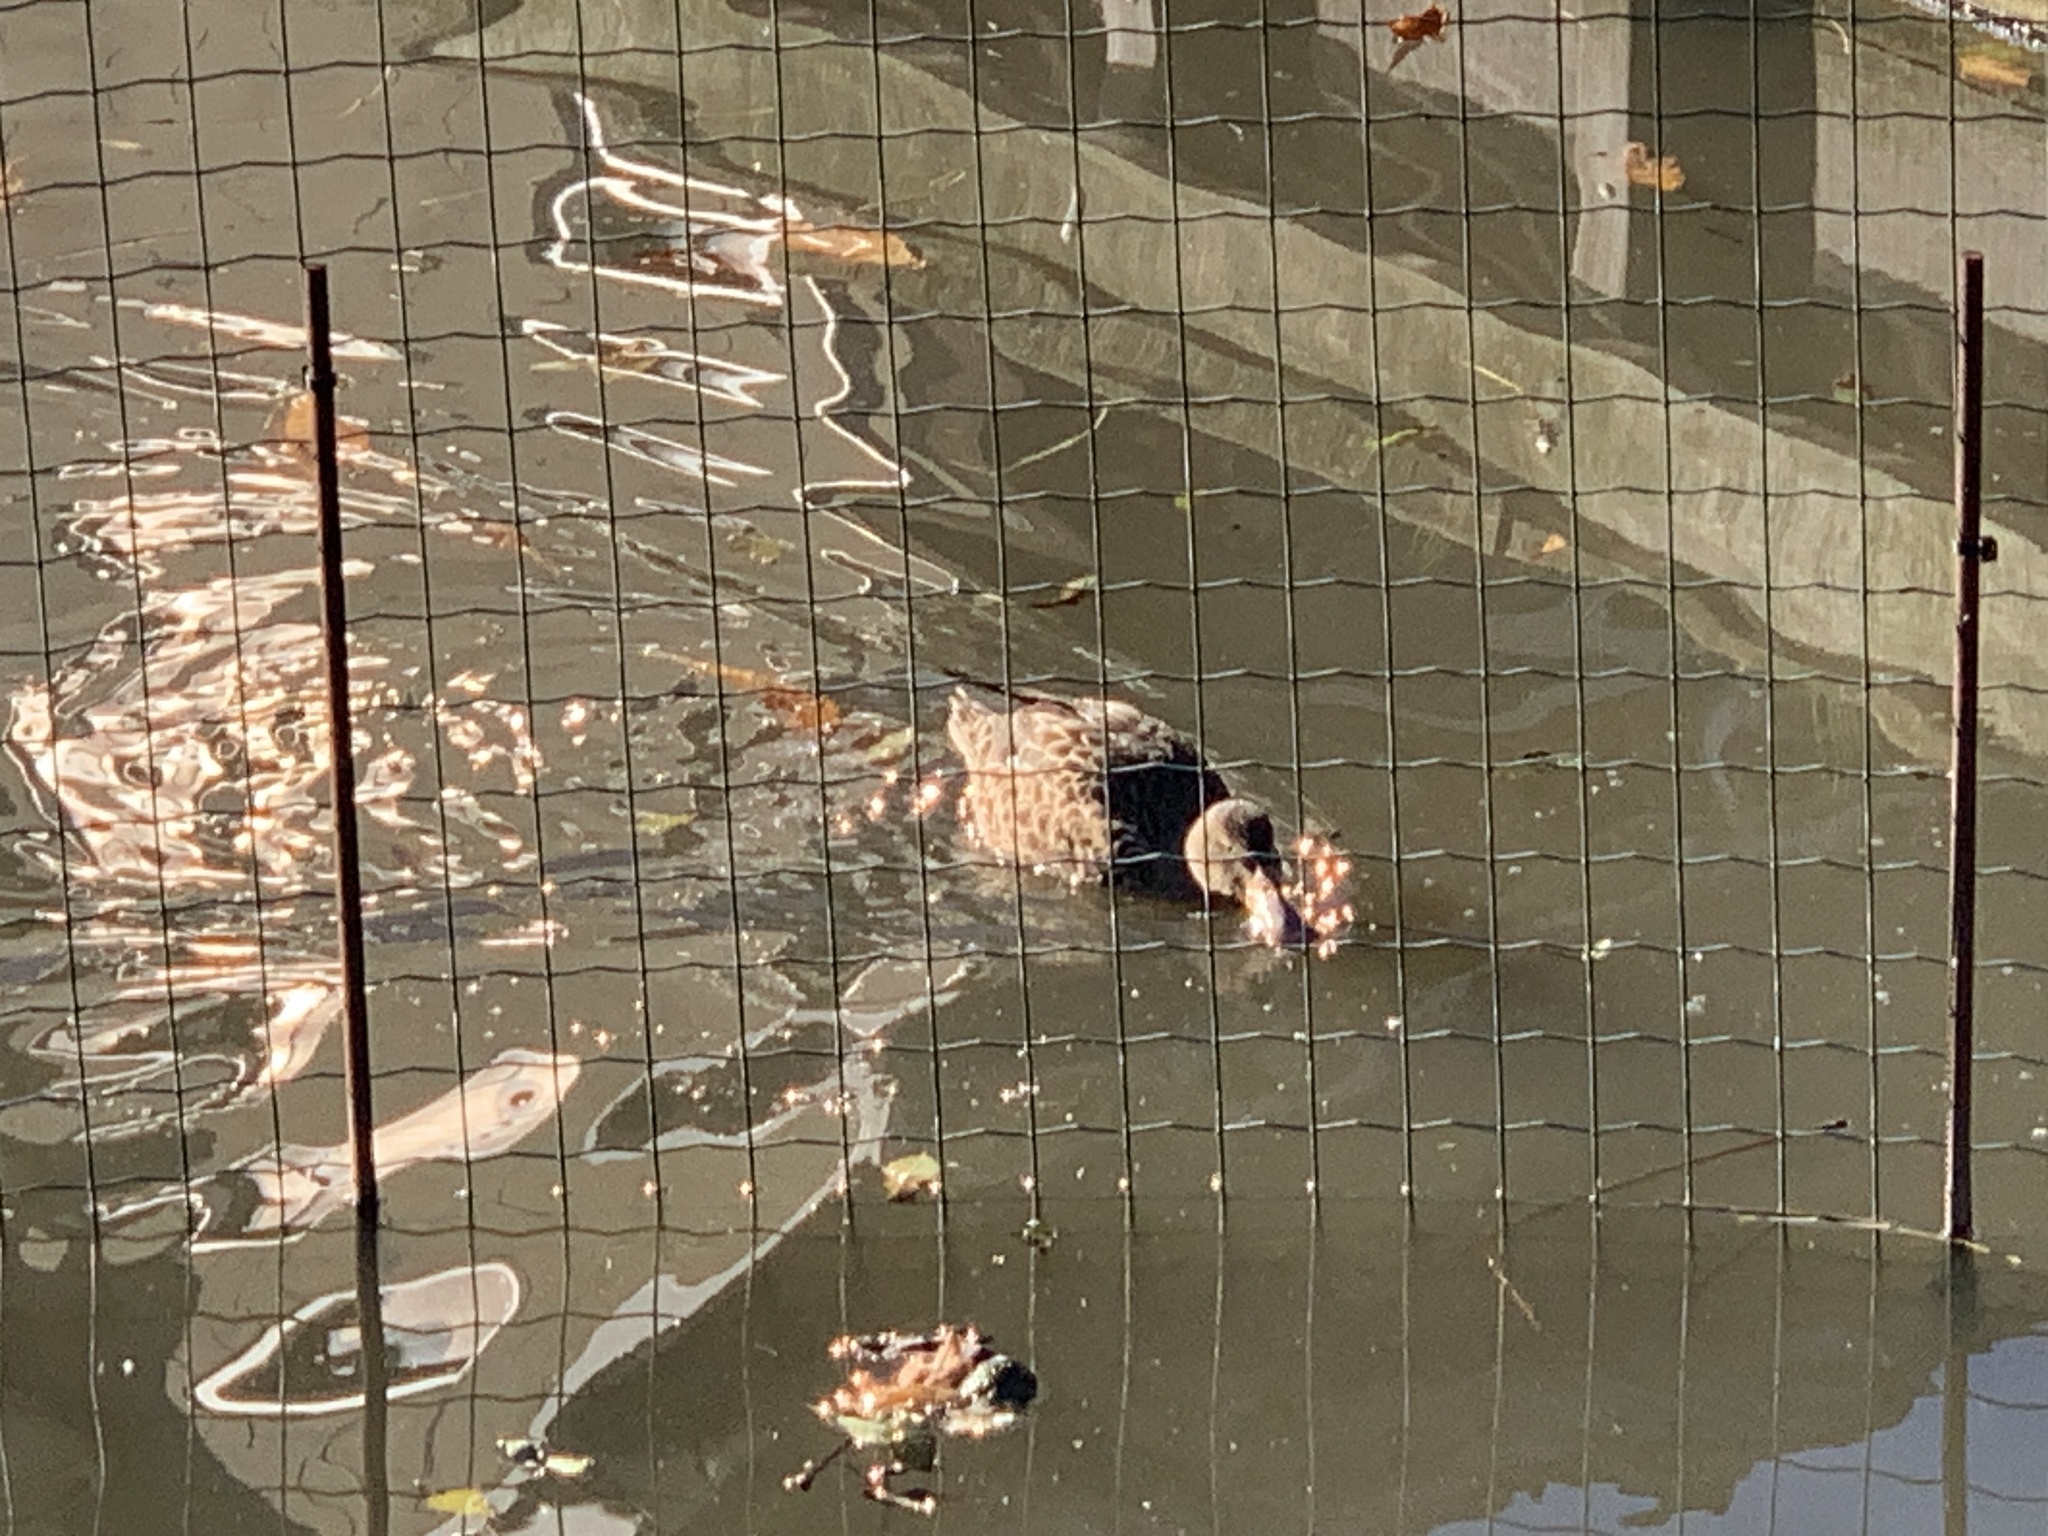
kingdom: Animalia
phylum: Chordata
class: Aves
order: Anseriformes
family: Anatidae
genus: Spatula
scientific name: Spatula clypeata
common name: Northern shoveler
